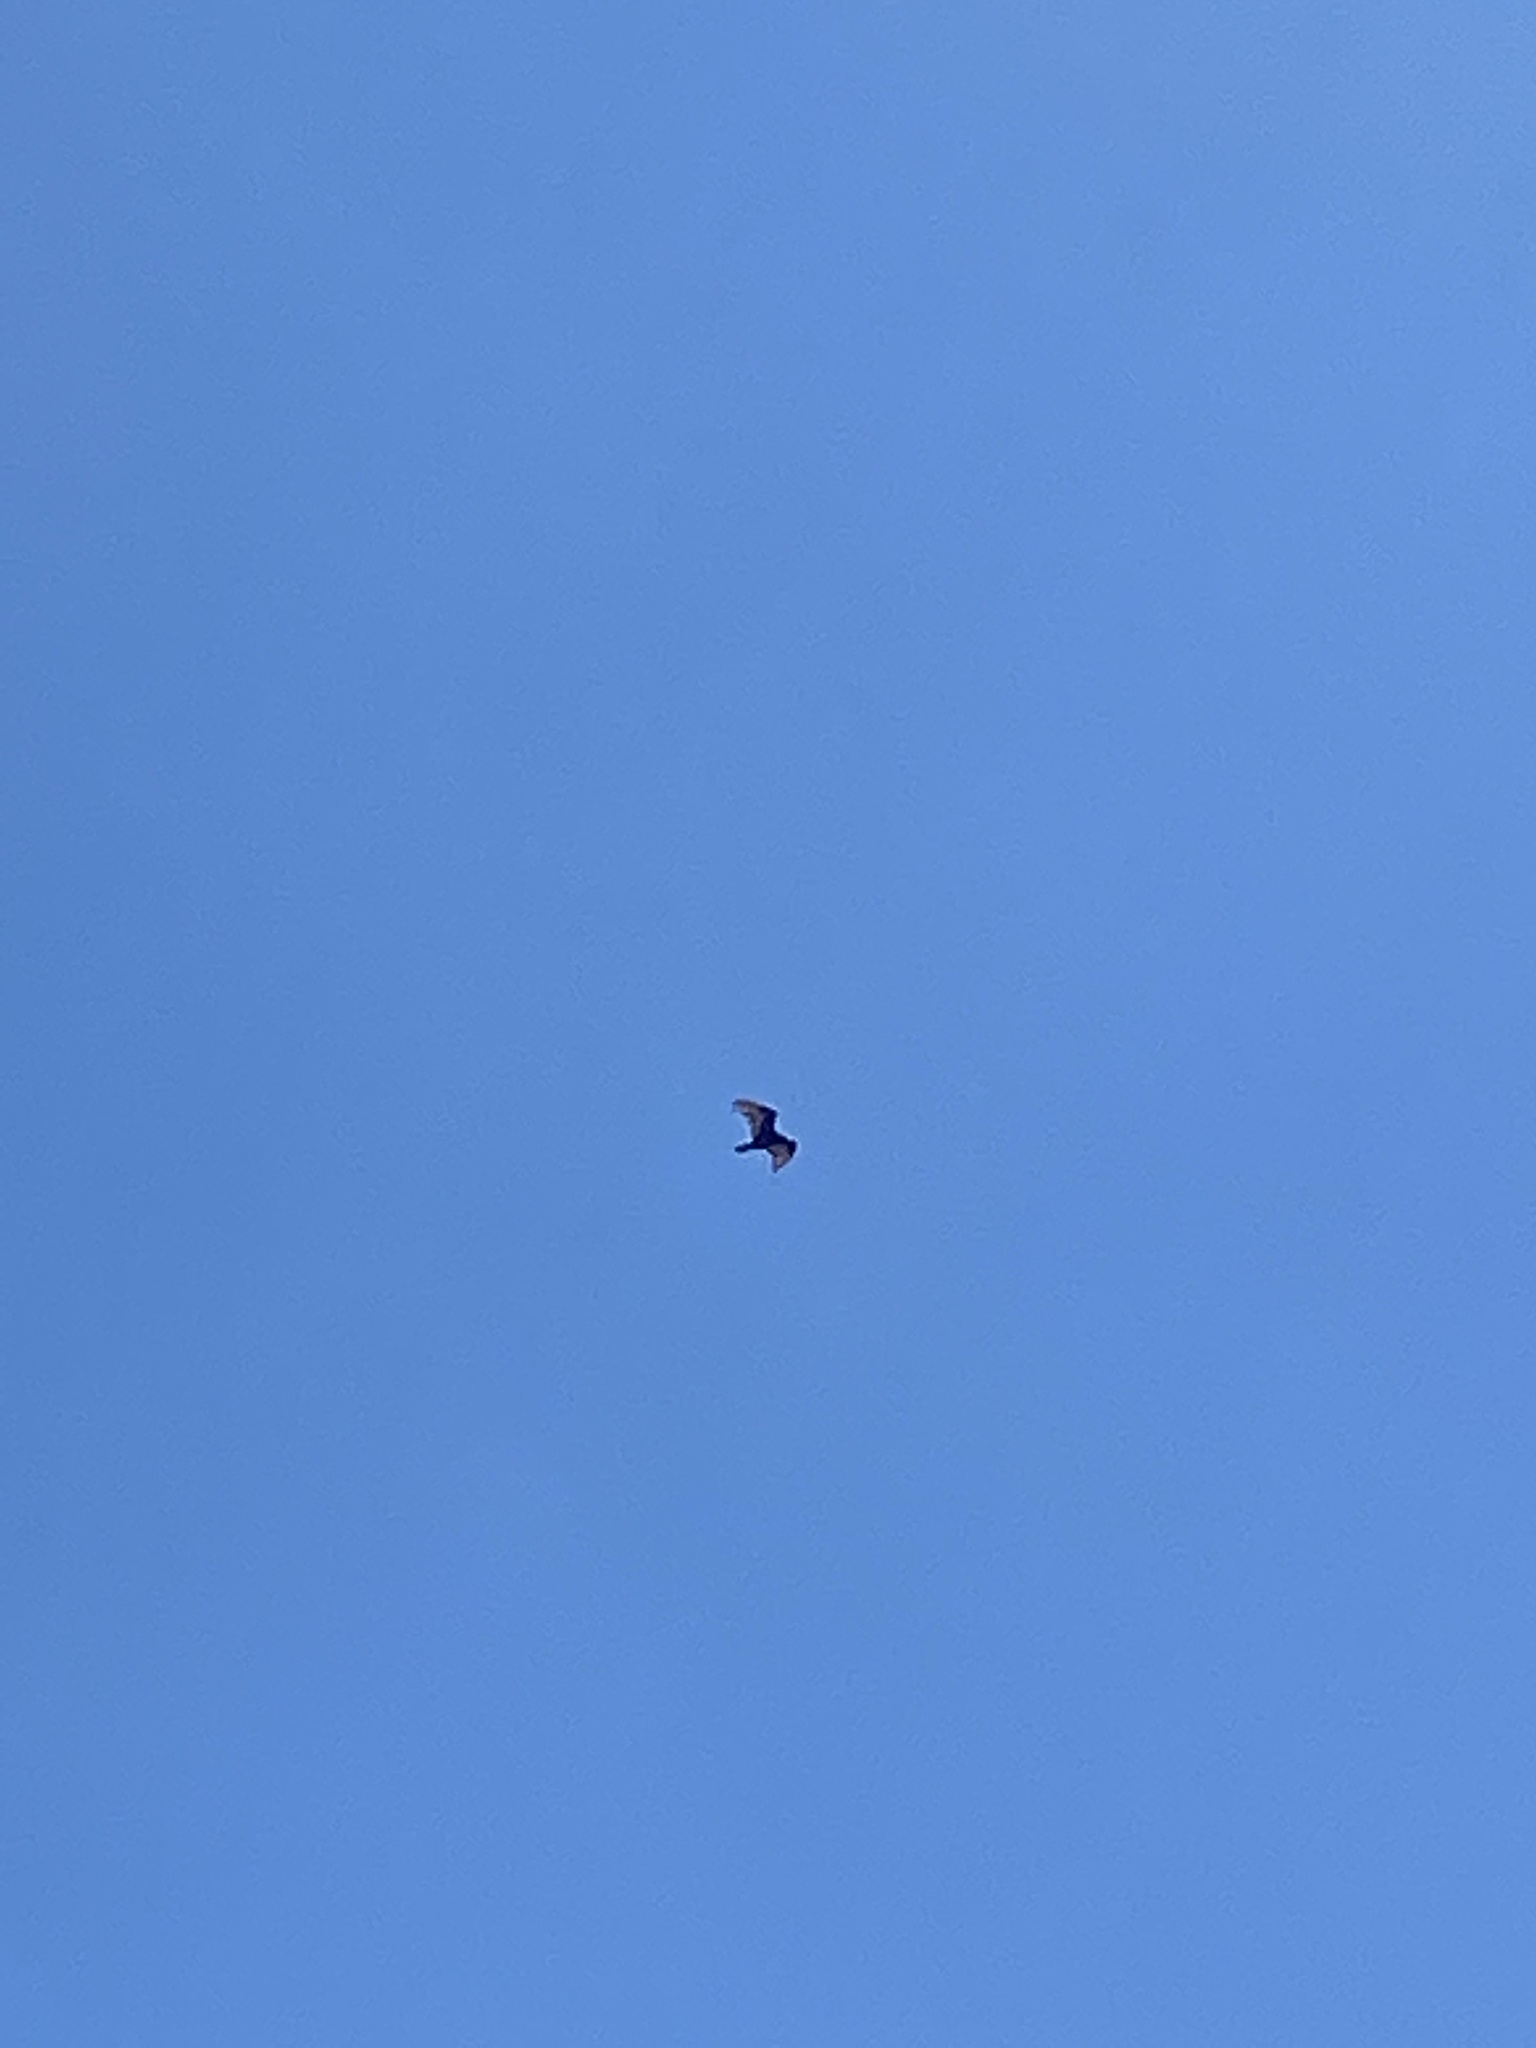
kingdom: Animalia
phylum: Chordata
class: Aves
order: Accipitriformes
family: Cathartidae
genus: Cathartes
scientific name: Cathartes aura
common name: Turkey vulture
